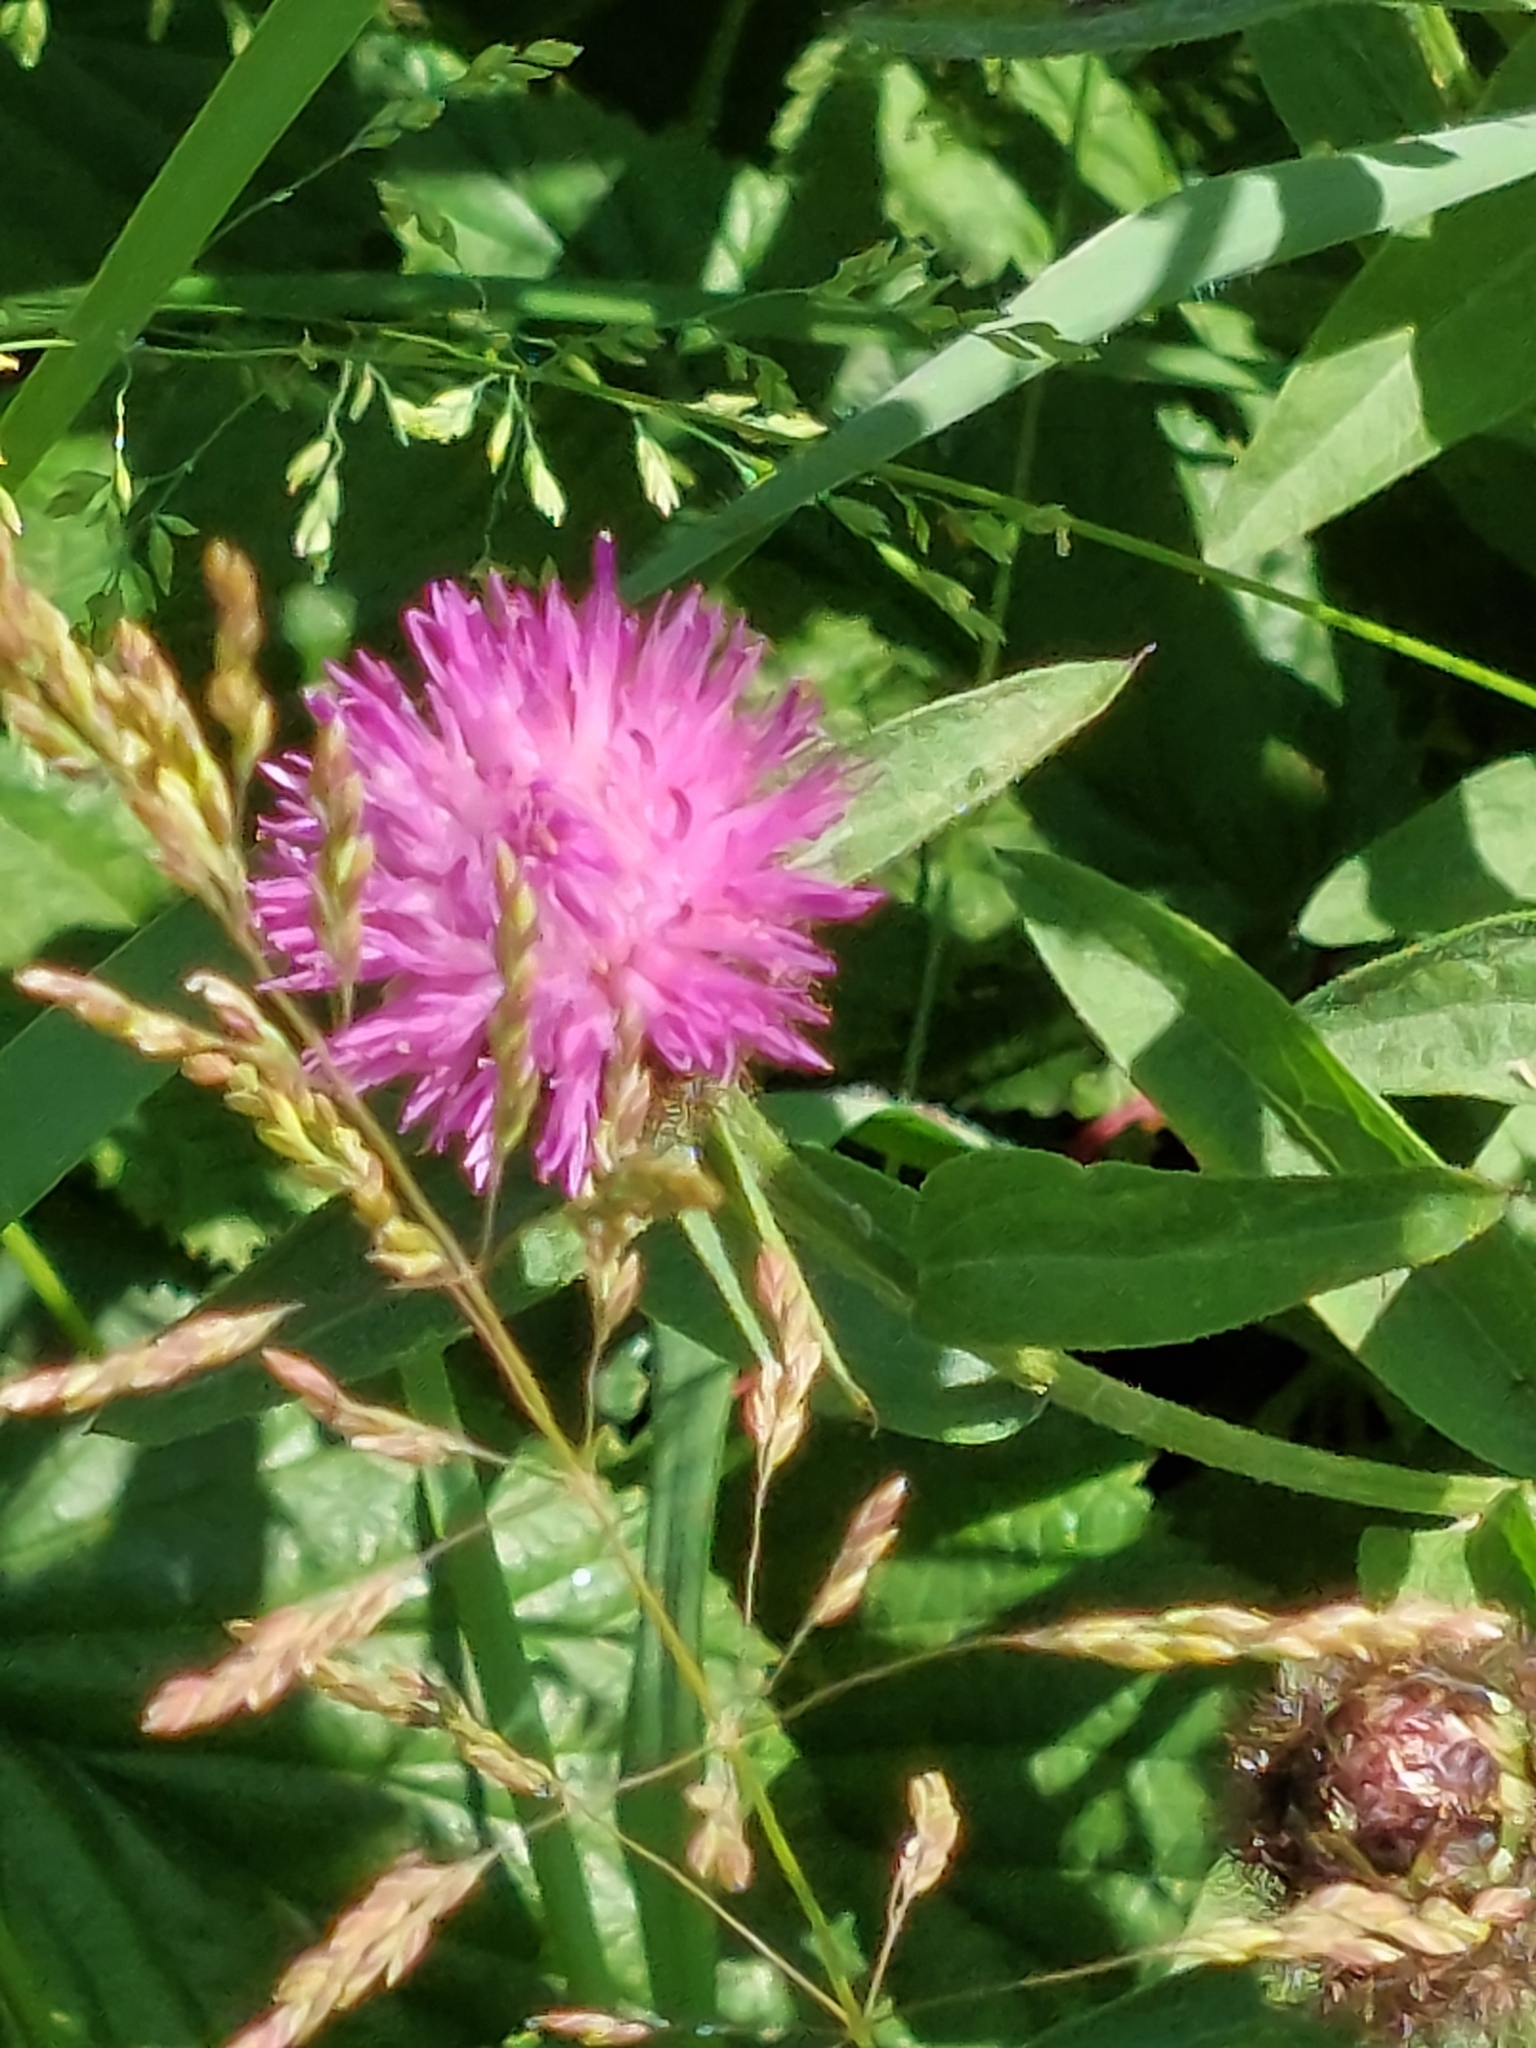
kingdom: Plantae
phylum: Tracheophyta
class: Magnoliopsida
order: Asterales
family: Asteraceae
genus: Centaurea
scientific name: Centaurea nigra
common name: Lesser knapweed
